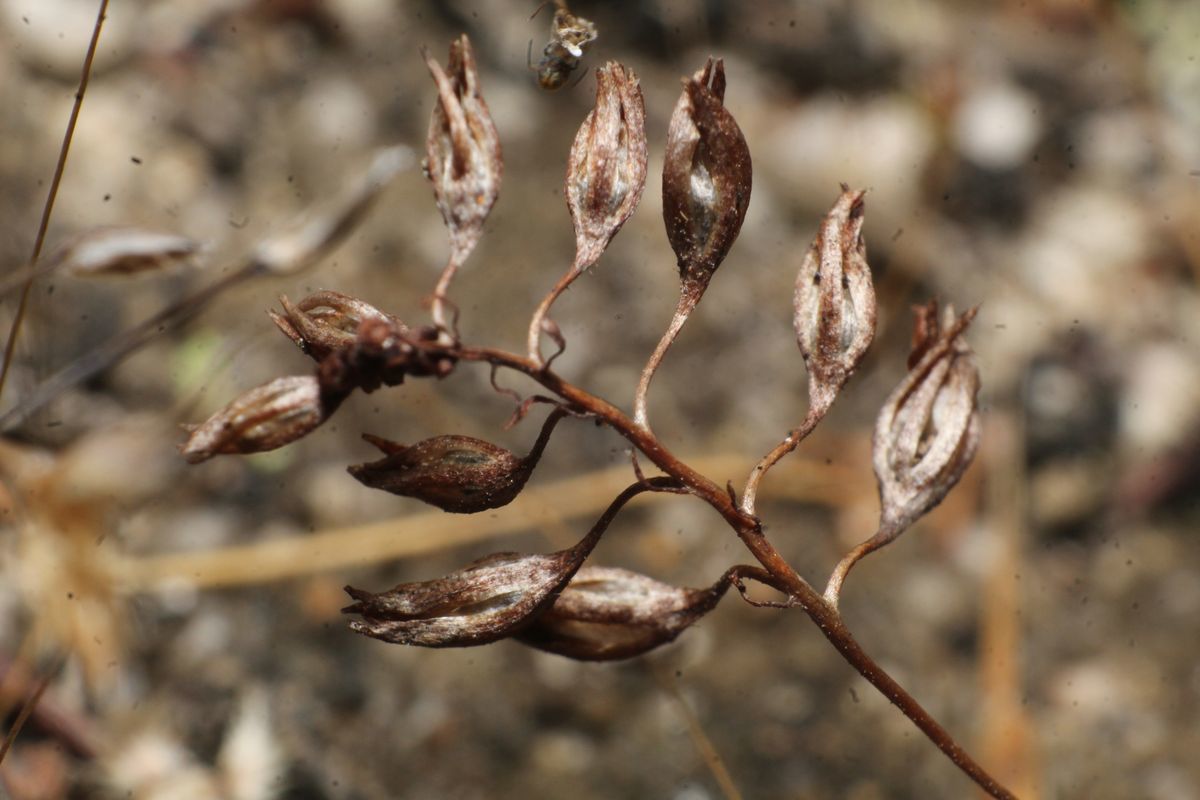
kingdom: Plantae
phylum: Tracheophyta
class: Magnoliopsida
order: Caryophyllales
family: Droseraceae
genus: Drosera
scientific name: Drosera nitidula
